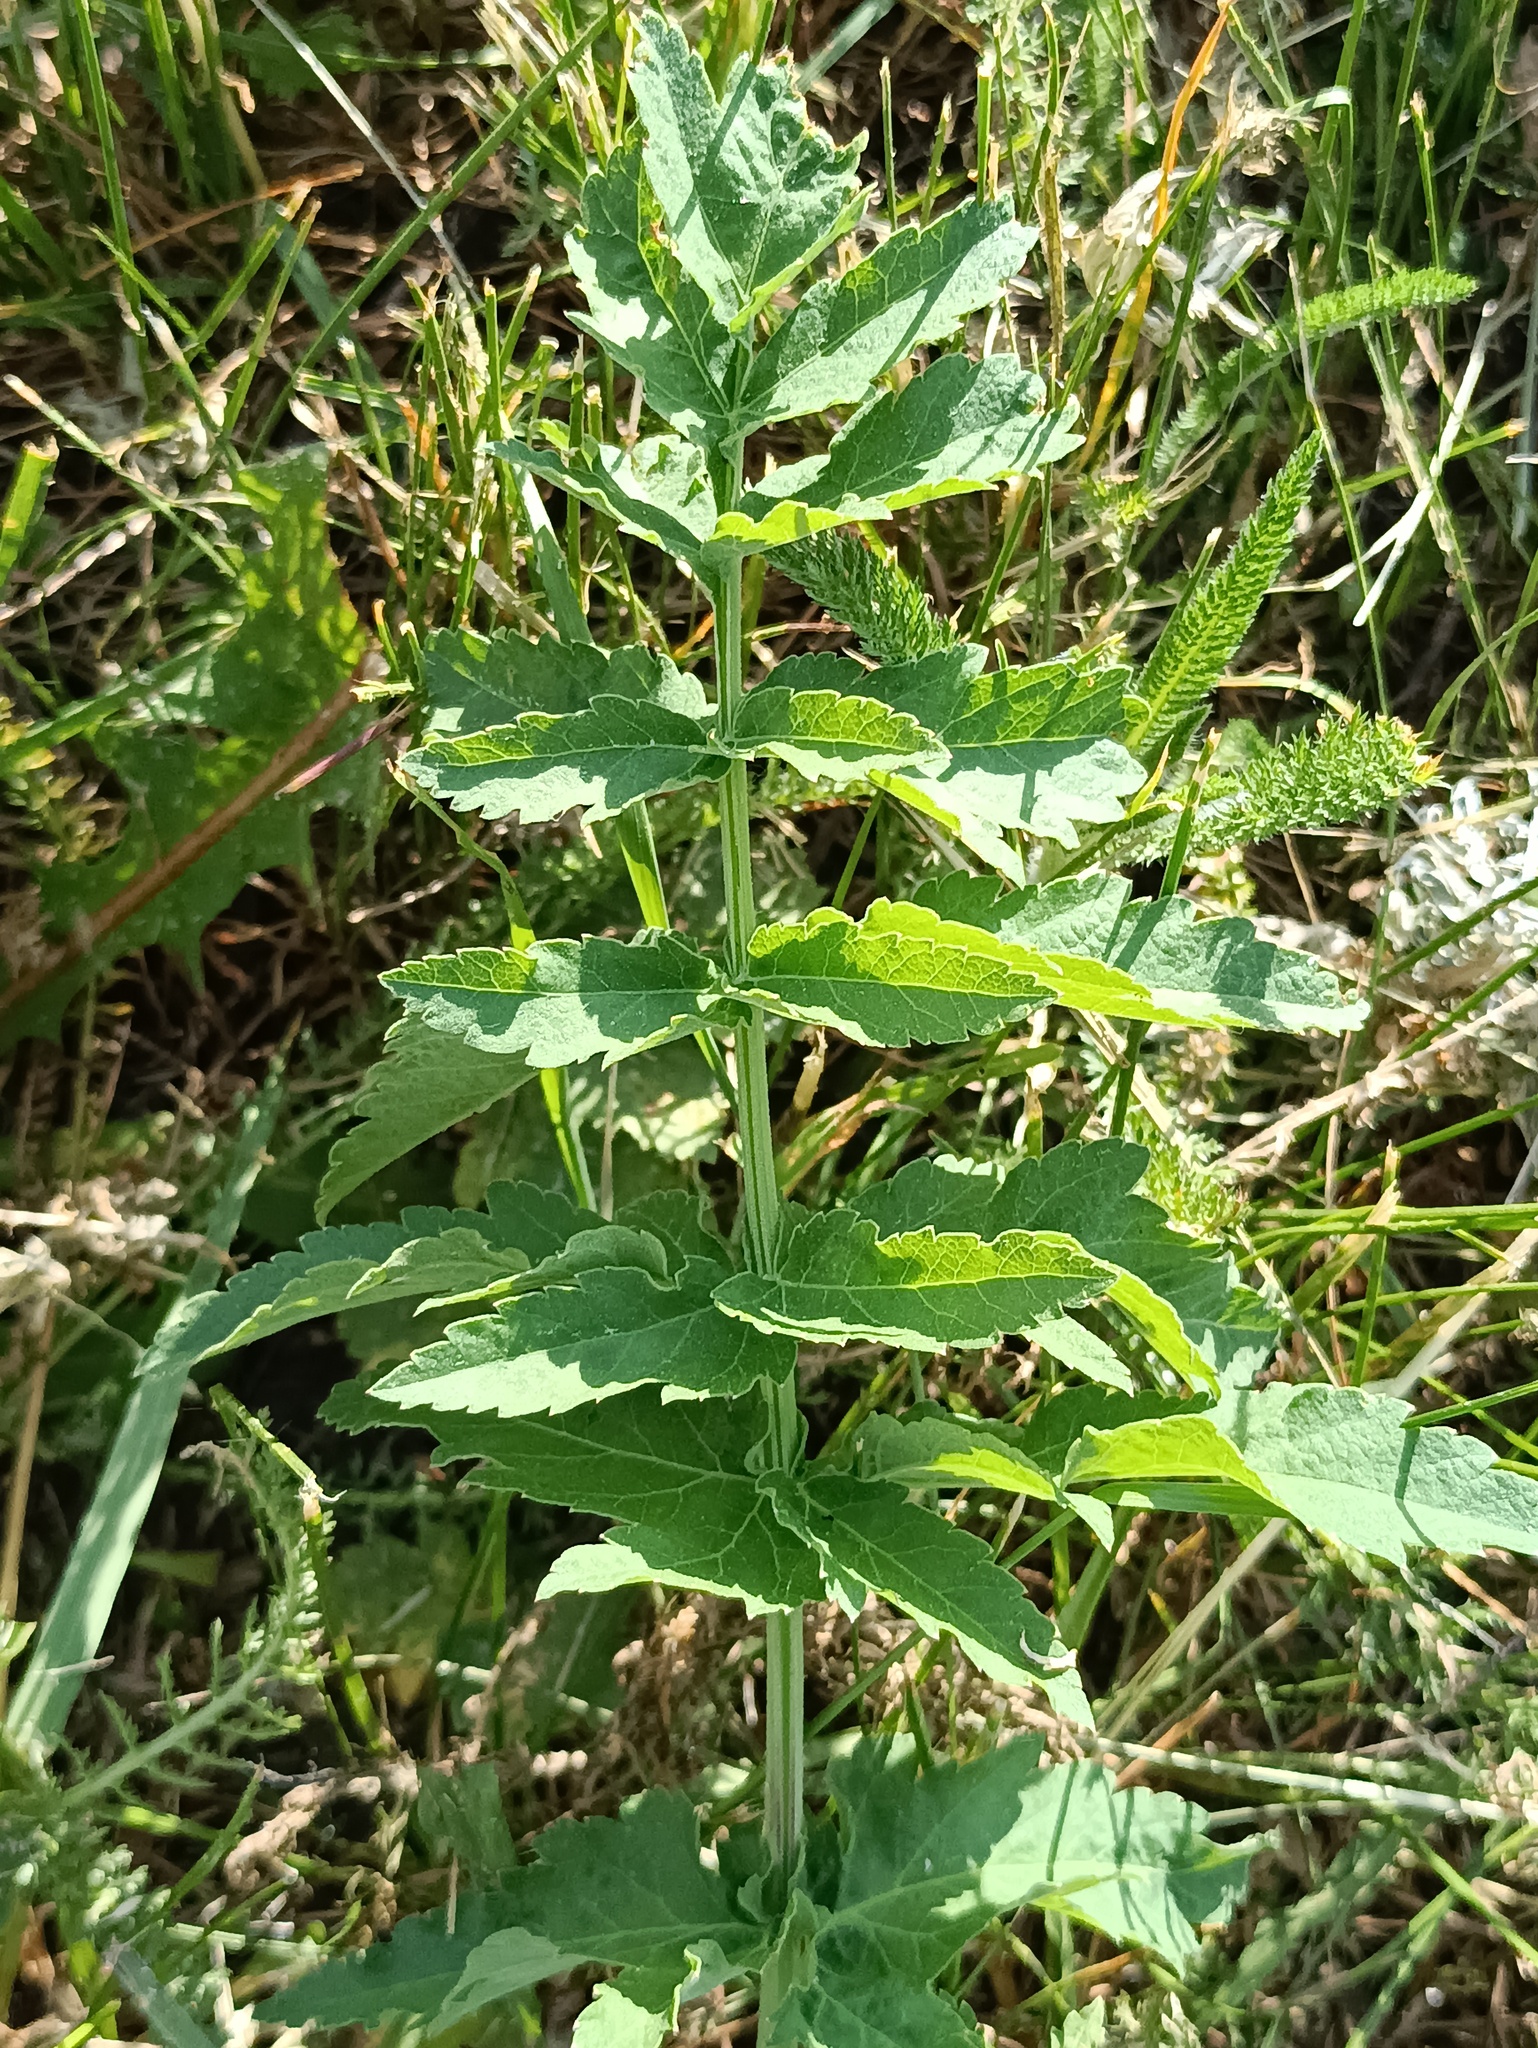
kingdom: Plantae
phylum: Tracheophyta
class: Magnoliopsida
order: Apiales
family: Apiaceae
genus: Pastinaca
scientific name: Pastinaca sativa
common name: Wild parsnip
